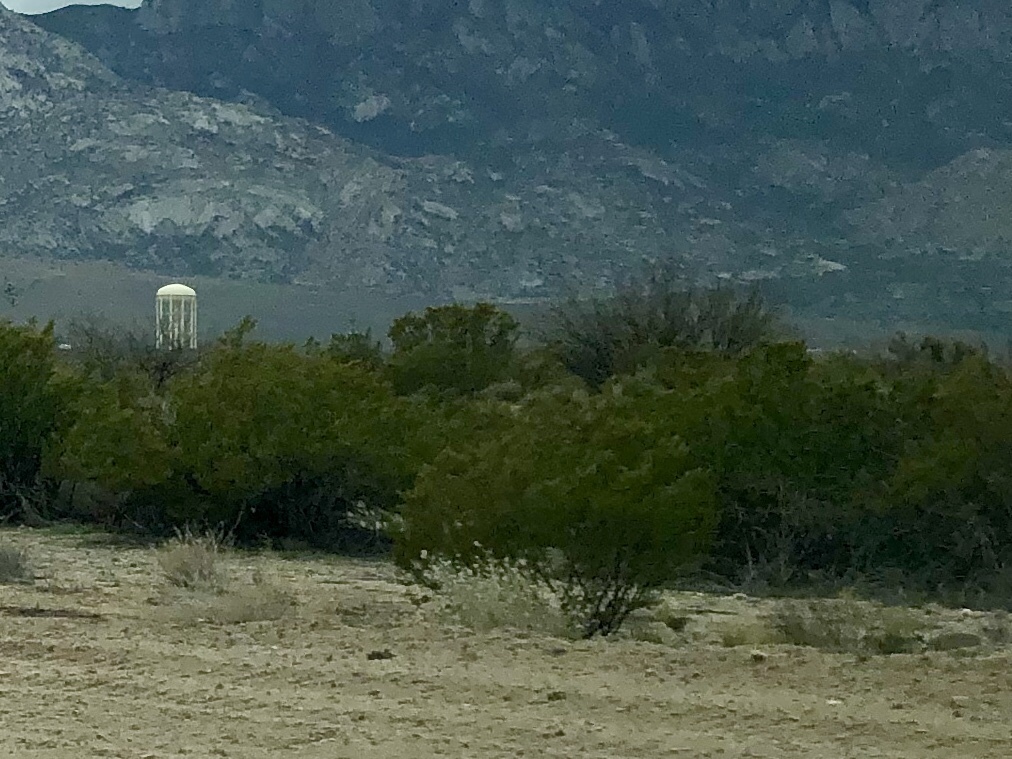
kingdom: Plantae
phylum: Tracheophyta
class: Magnoliopsida
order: Zygophyllales
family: Zygophyllaceae
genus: Larrea
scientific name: Larrea tridentata
